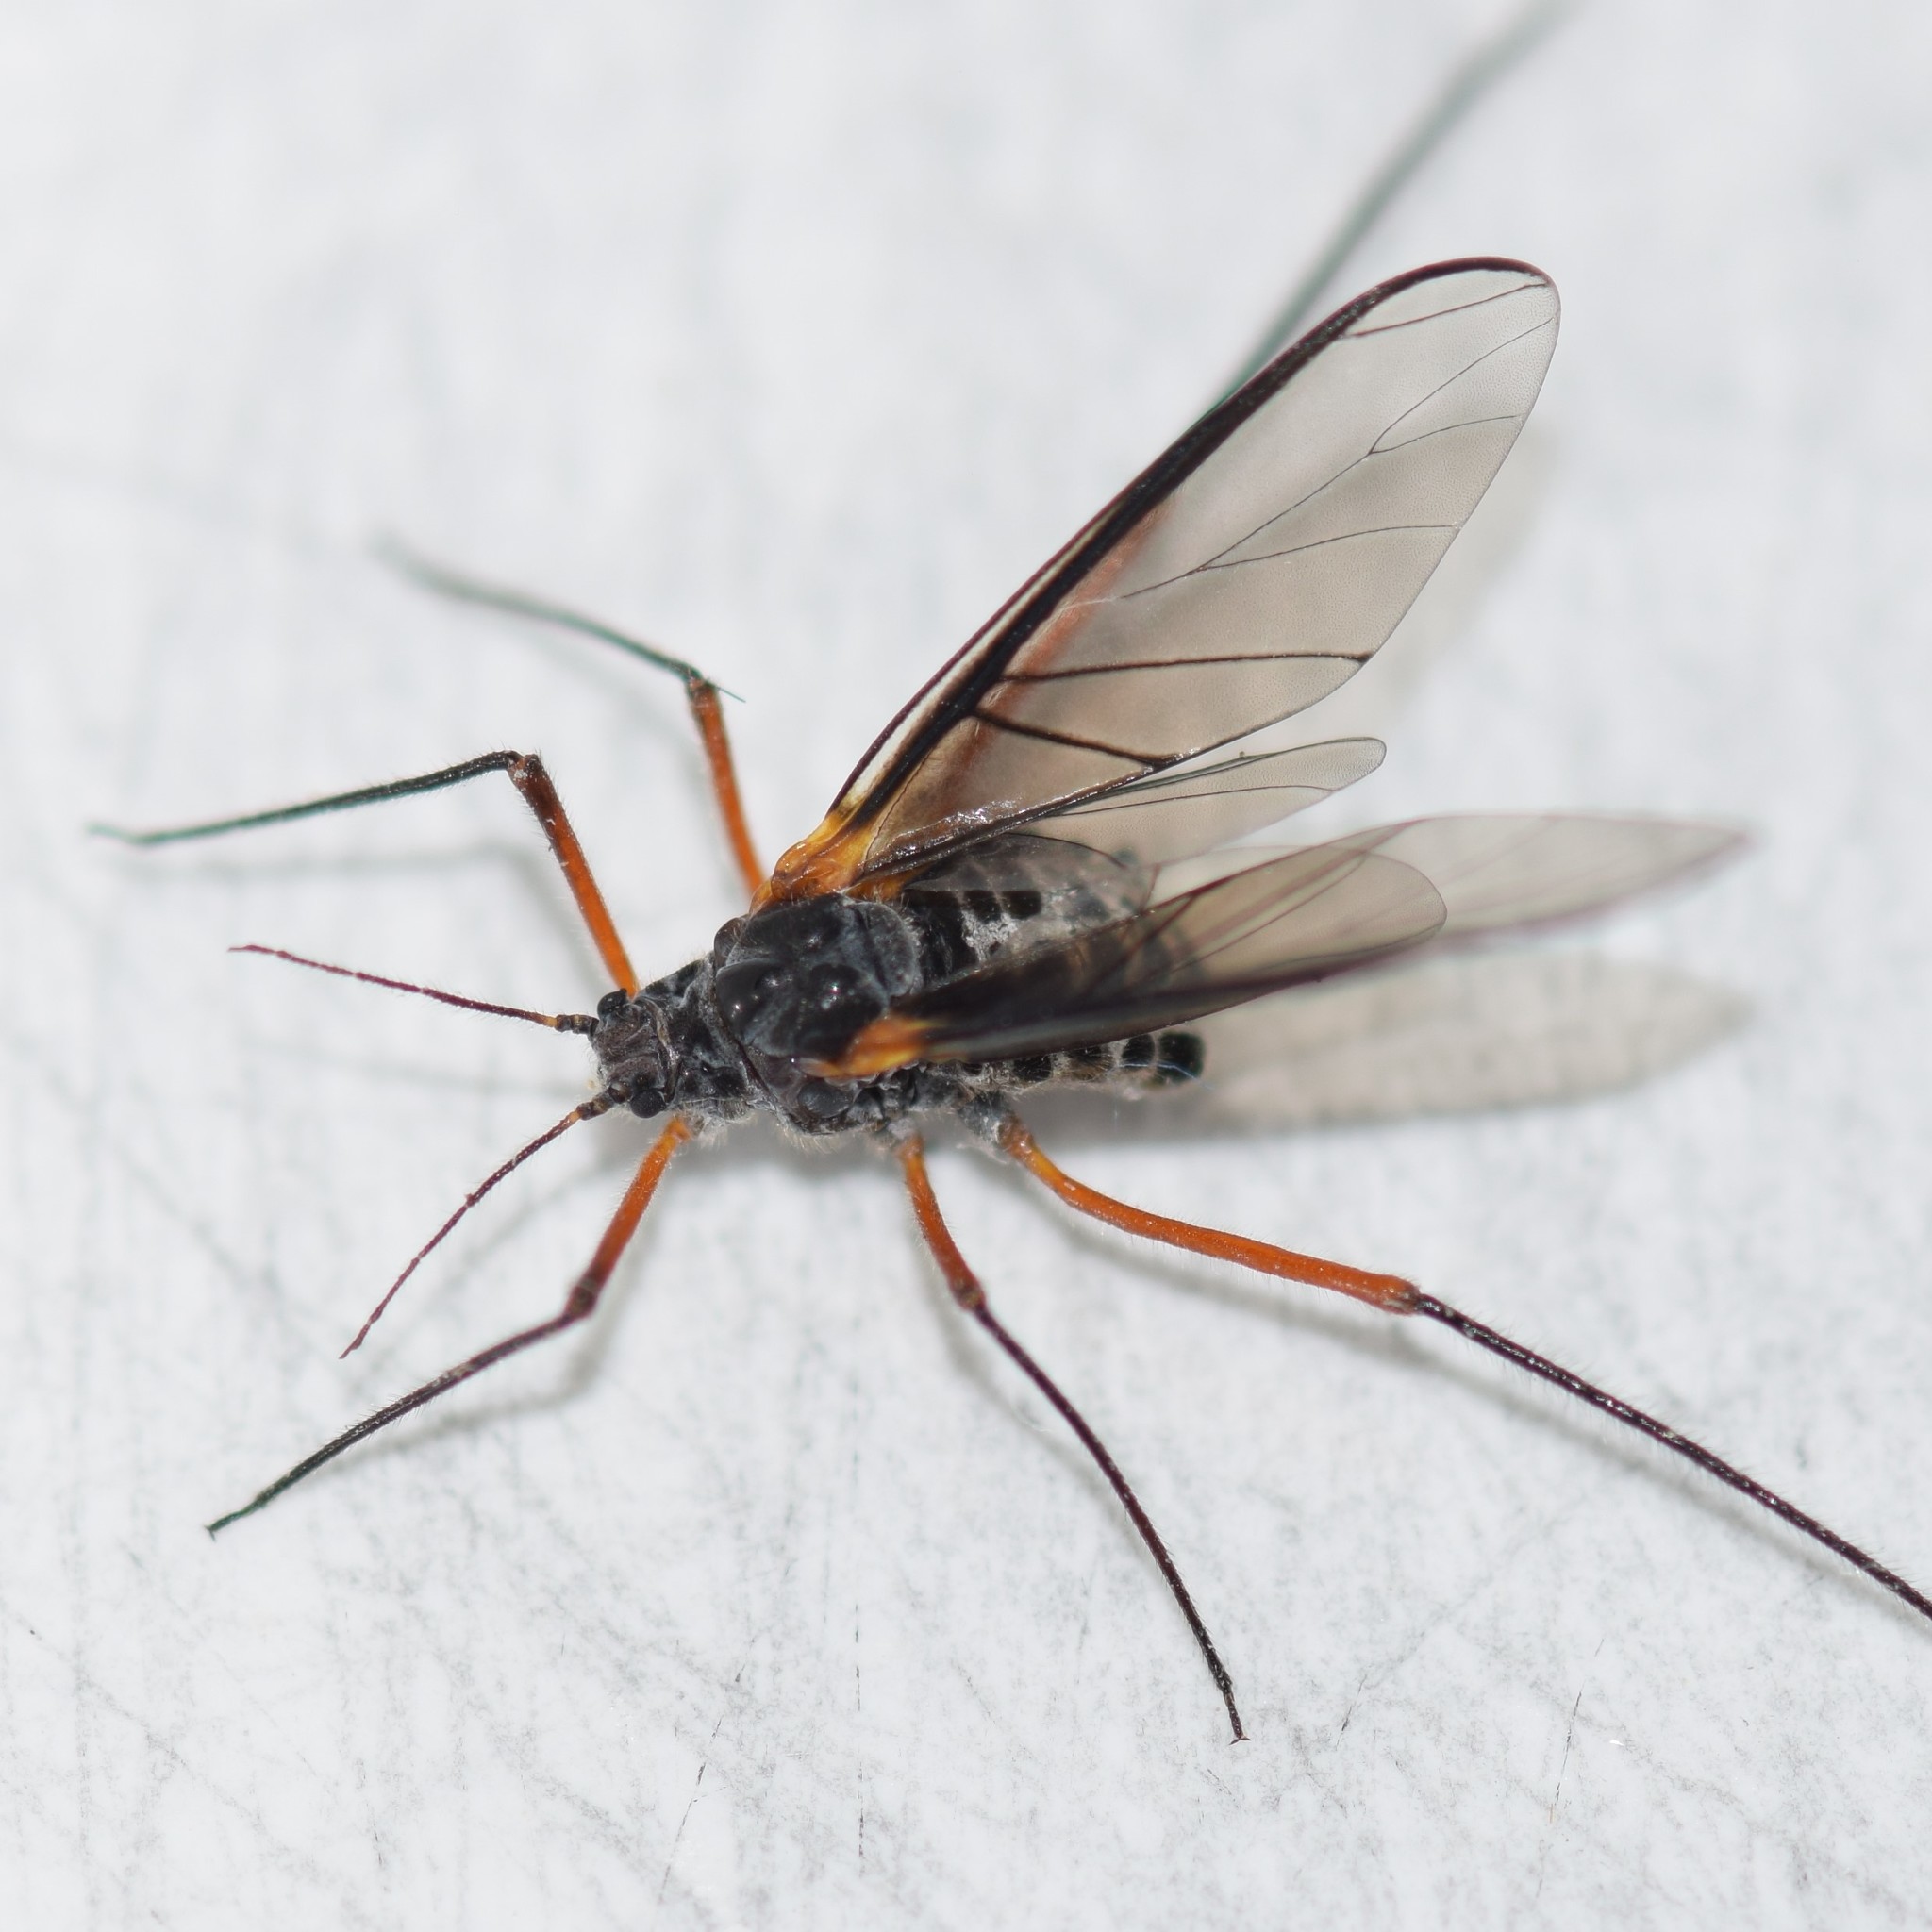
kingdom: Animalia
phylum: Arthropoda
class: Insecta
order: Hemiptera
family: Aphididae
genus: Longistigma
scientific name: Longistigma caryae
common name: Giant bark aphid
